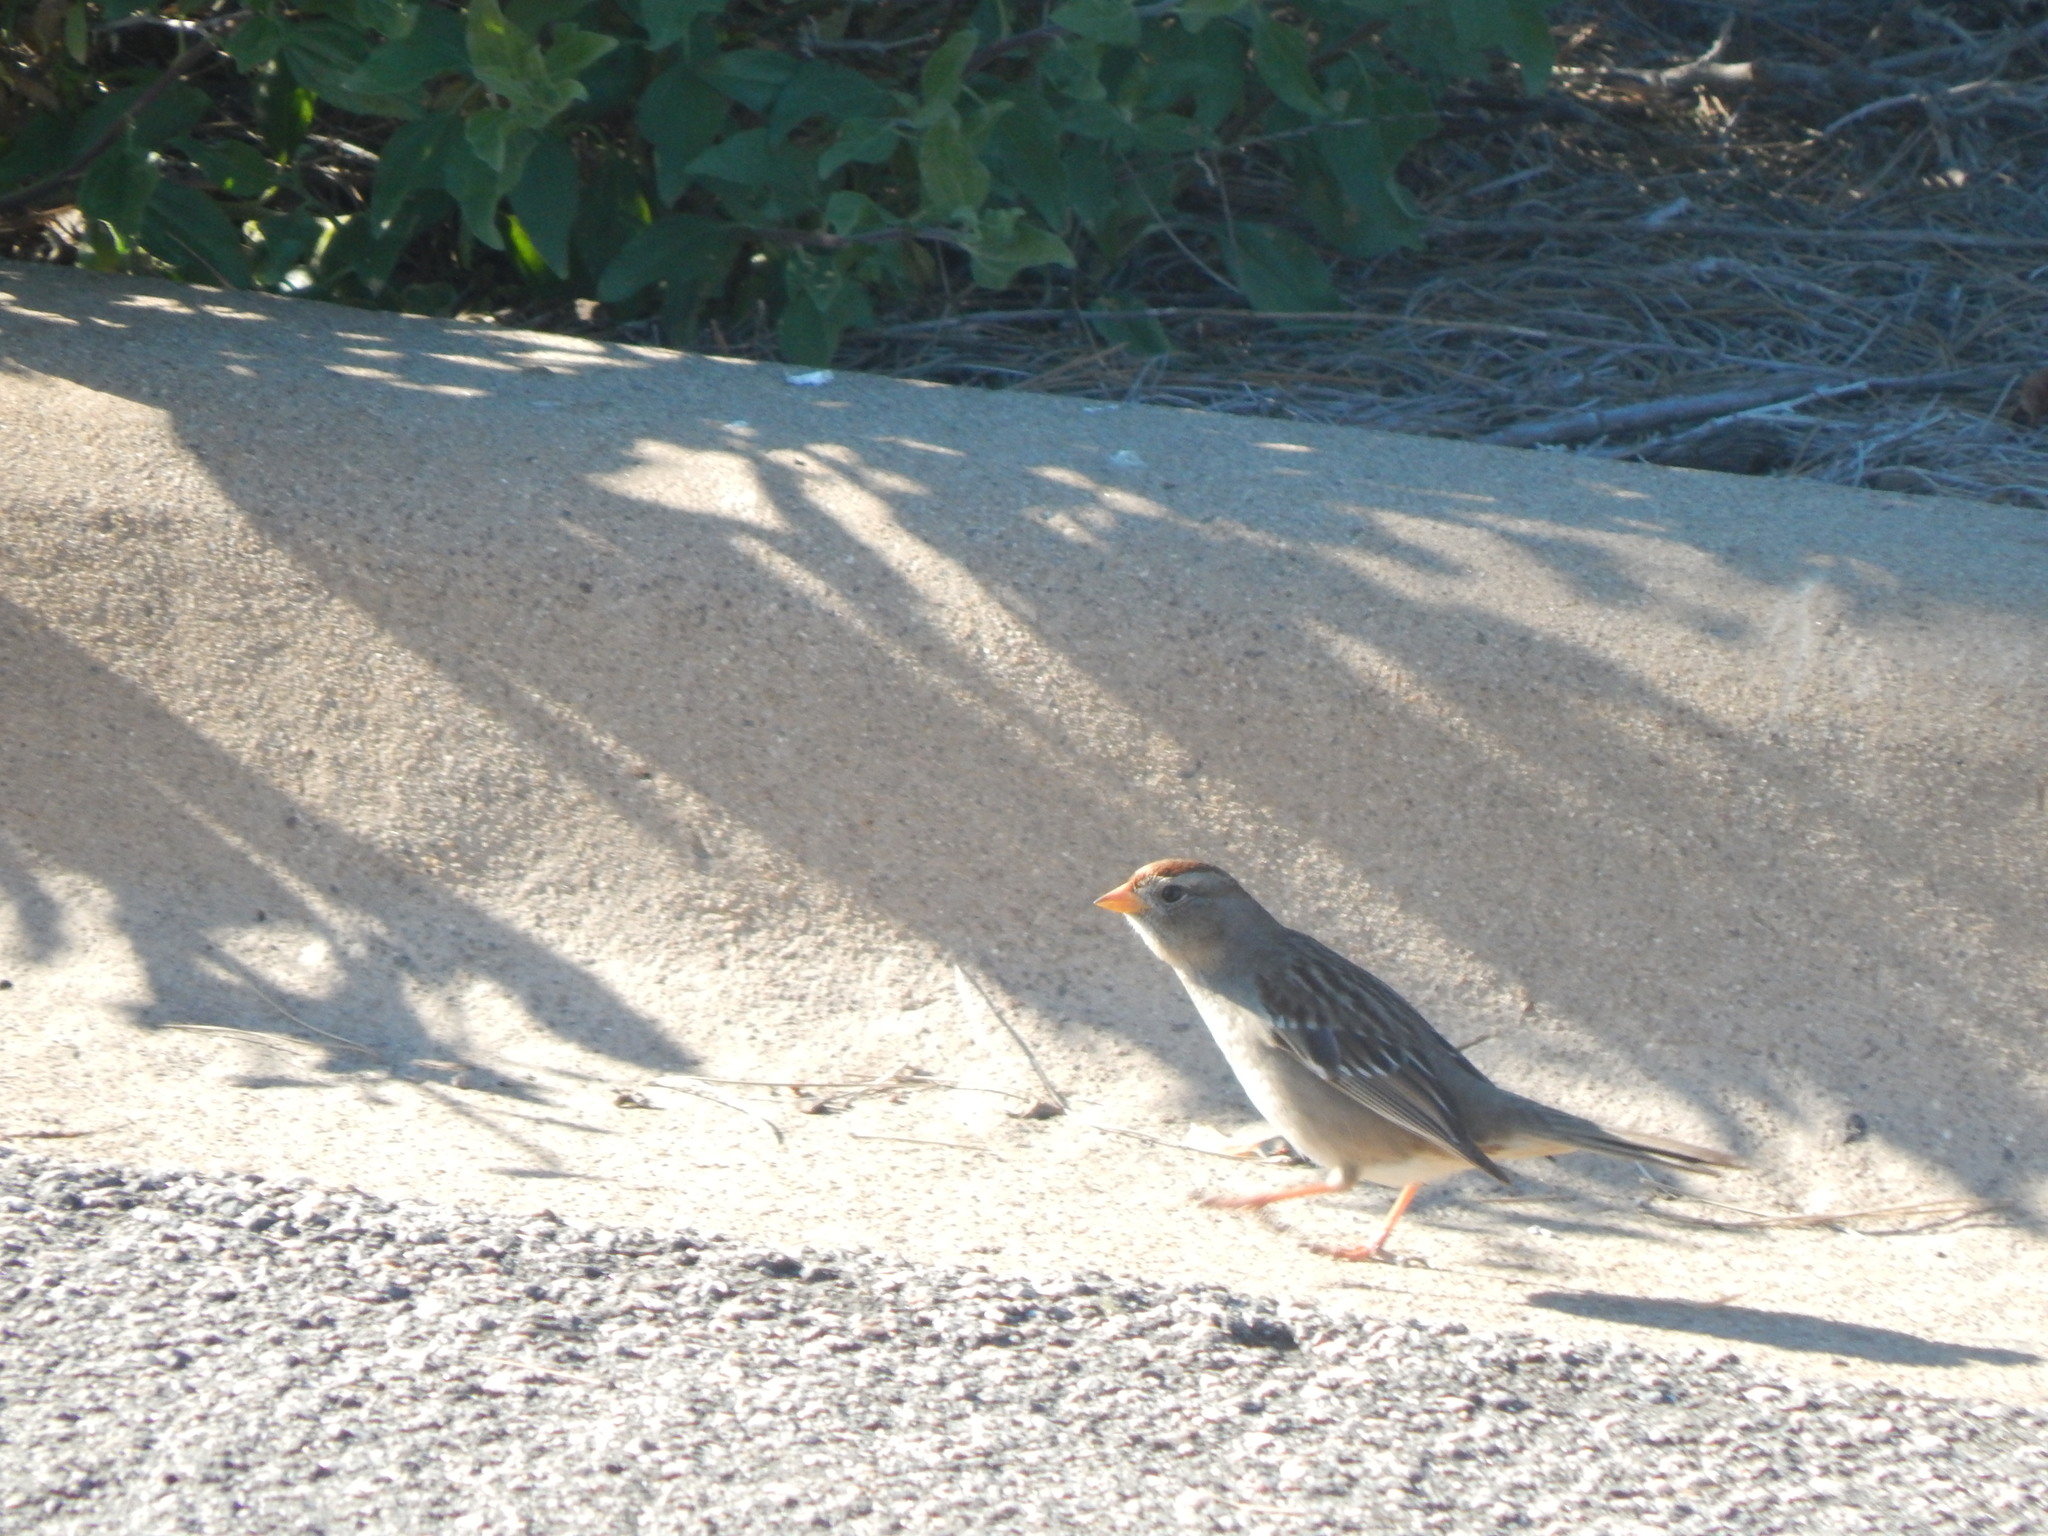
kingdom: Animalia
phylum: Chordata
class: Aves
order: Passeriformes
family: Passerellidae
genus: Zonotrichia
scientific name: Zonotrichia leucophrys
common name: White-crowned sparrow
